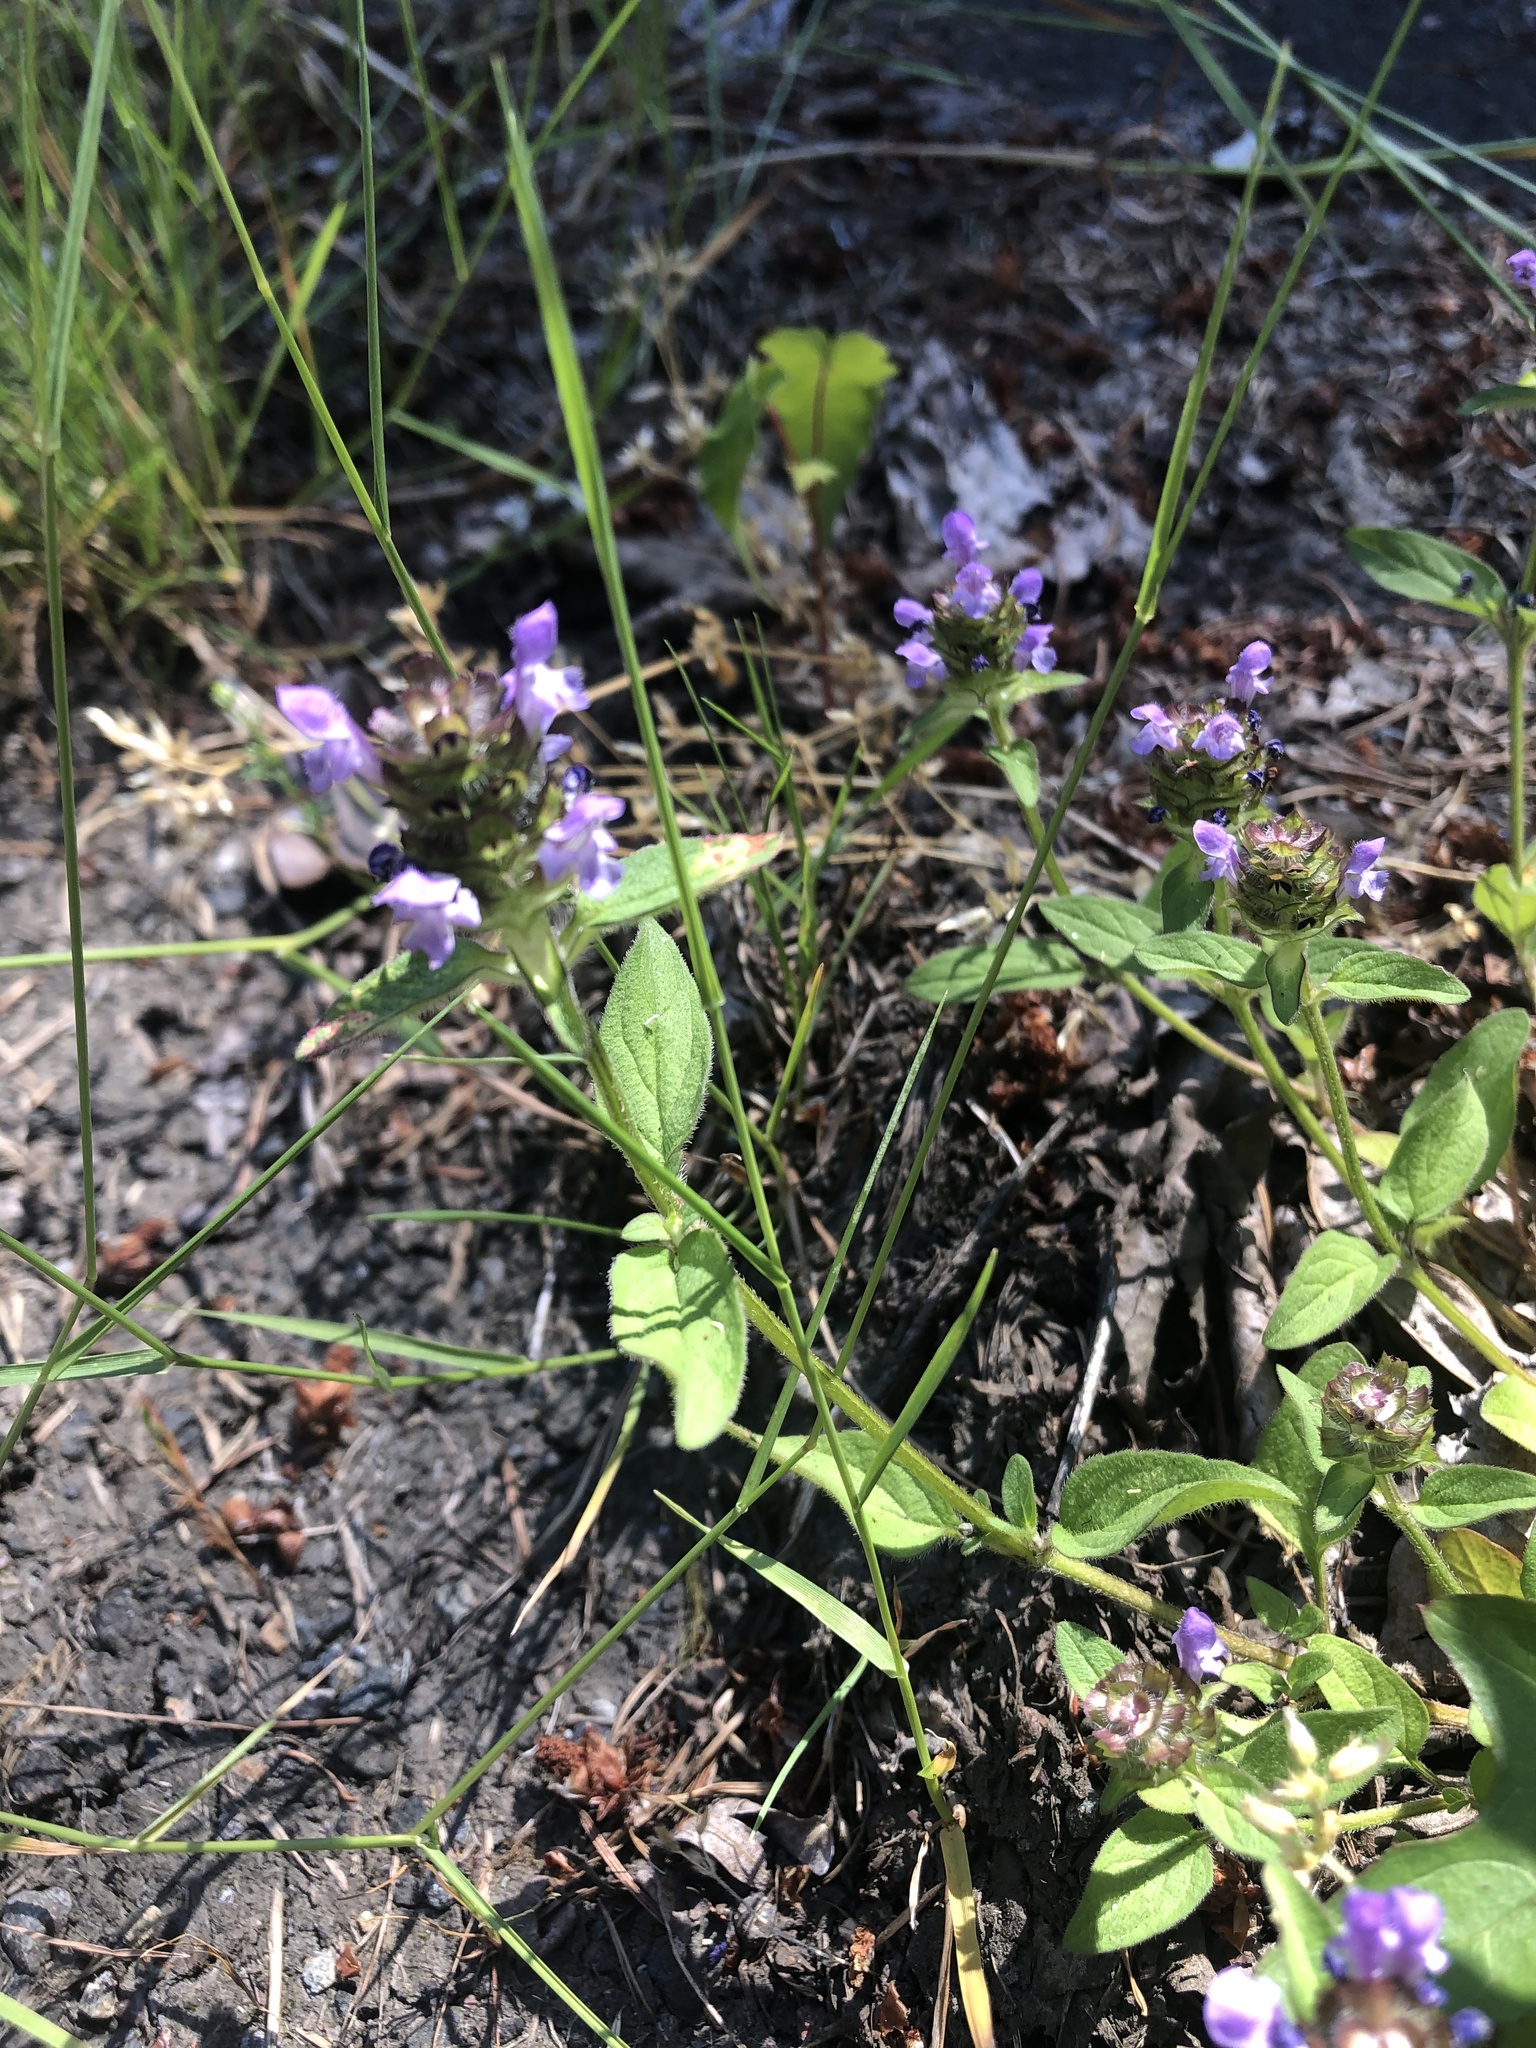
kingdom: Plantae
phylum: Tracheophyta
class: Magnoliopsida
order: Lamiales
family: Lamiaceae
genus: Prunella
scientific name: Prunella vulgaris
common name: Heal-all
